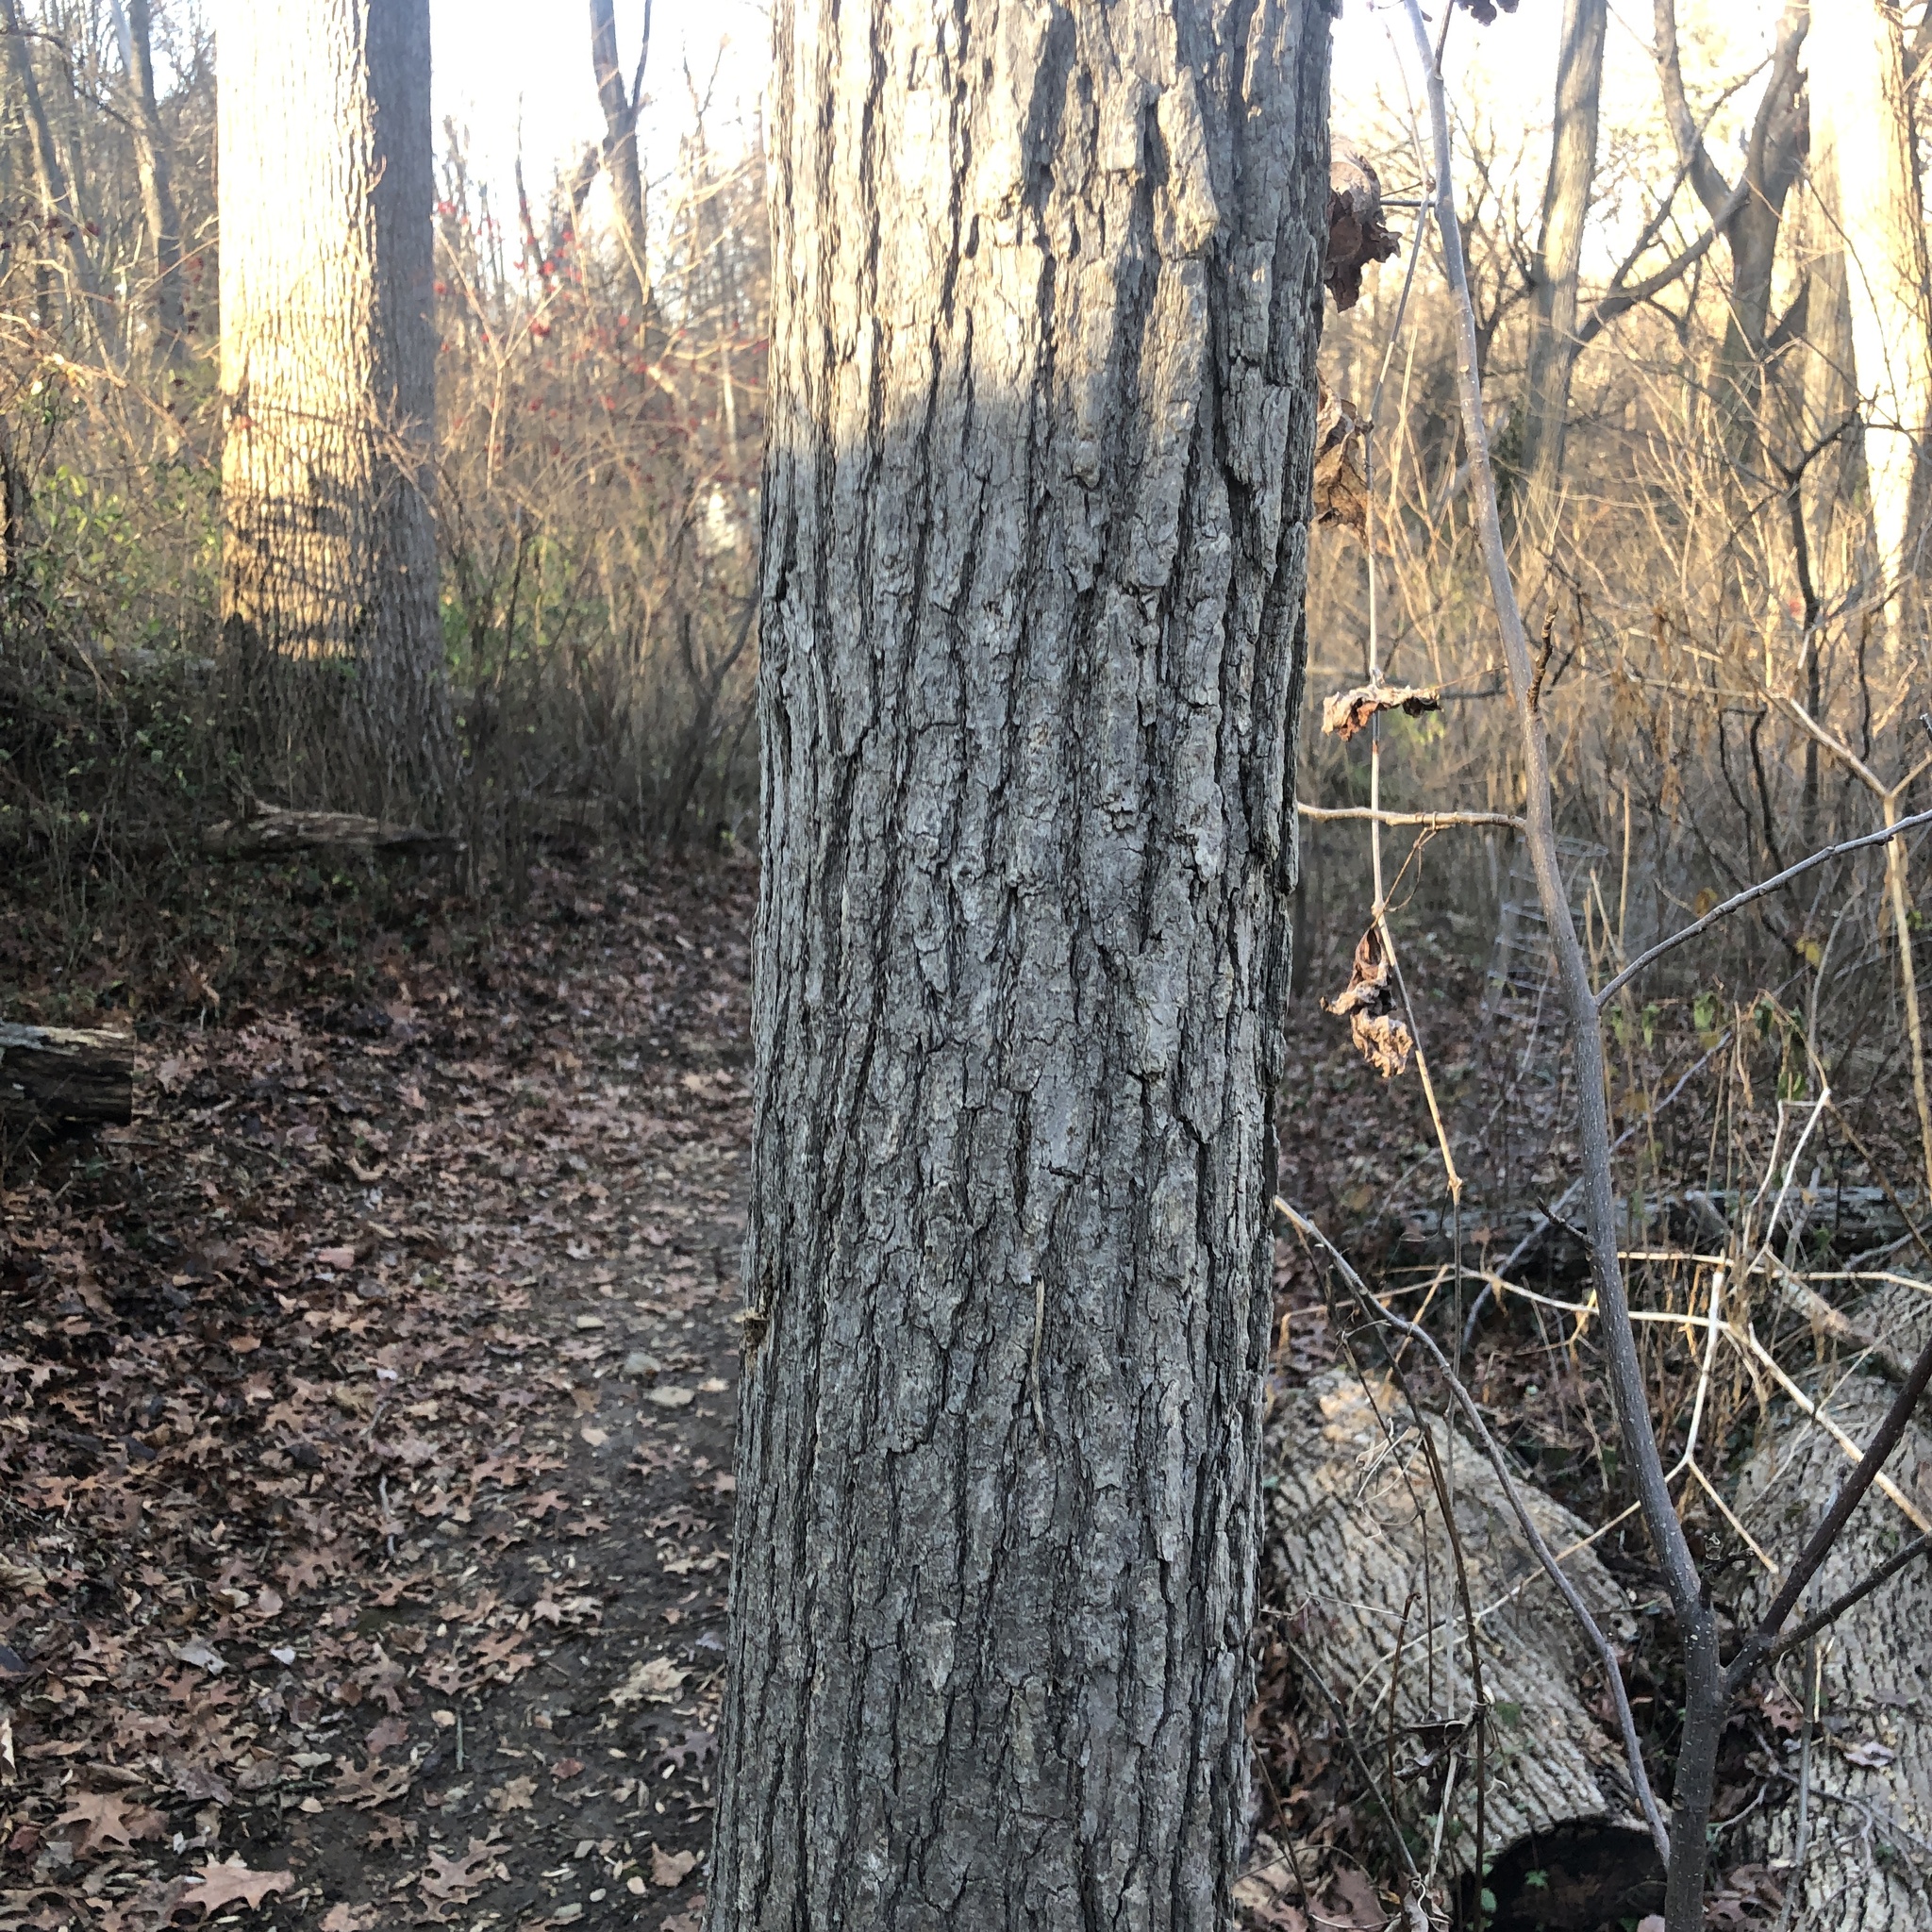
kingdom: Plantae
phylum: Tracheophyta
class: Magnoliopsida
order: Cornales
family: Nyssaceae
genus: Nyssa
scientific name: Nyssa sylvatica
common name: Black tupelo
